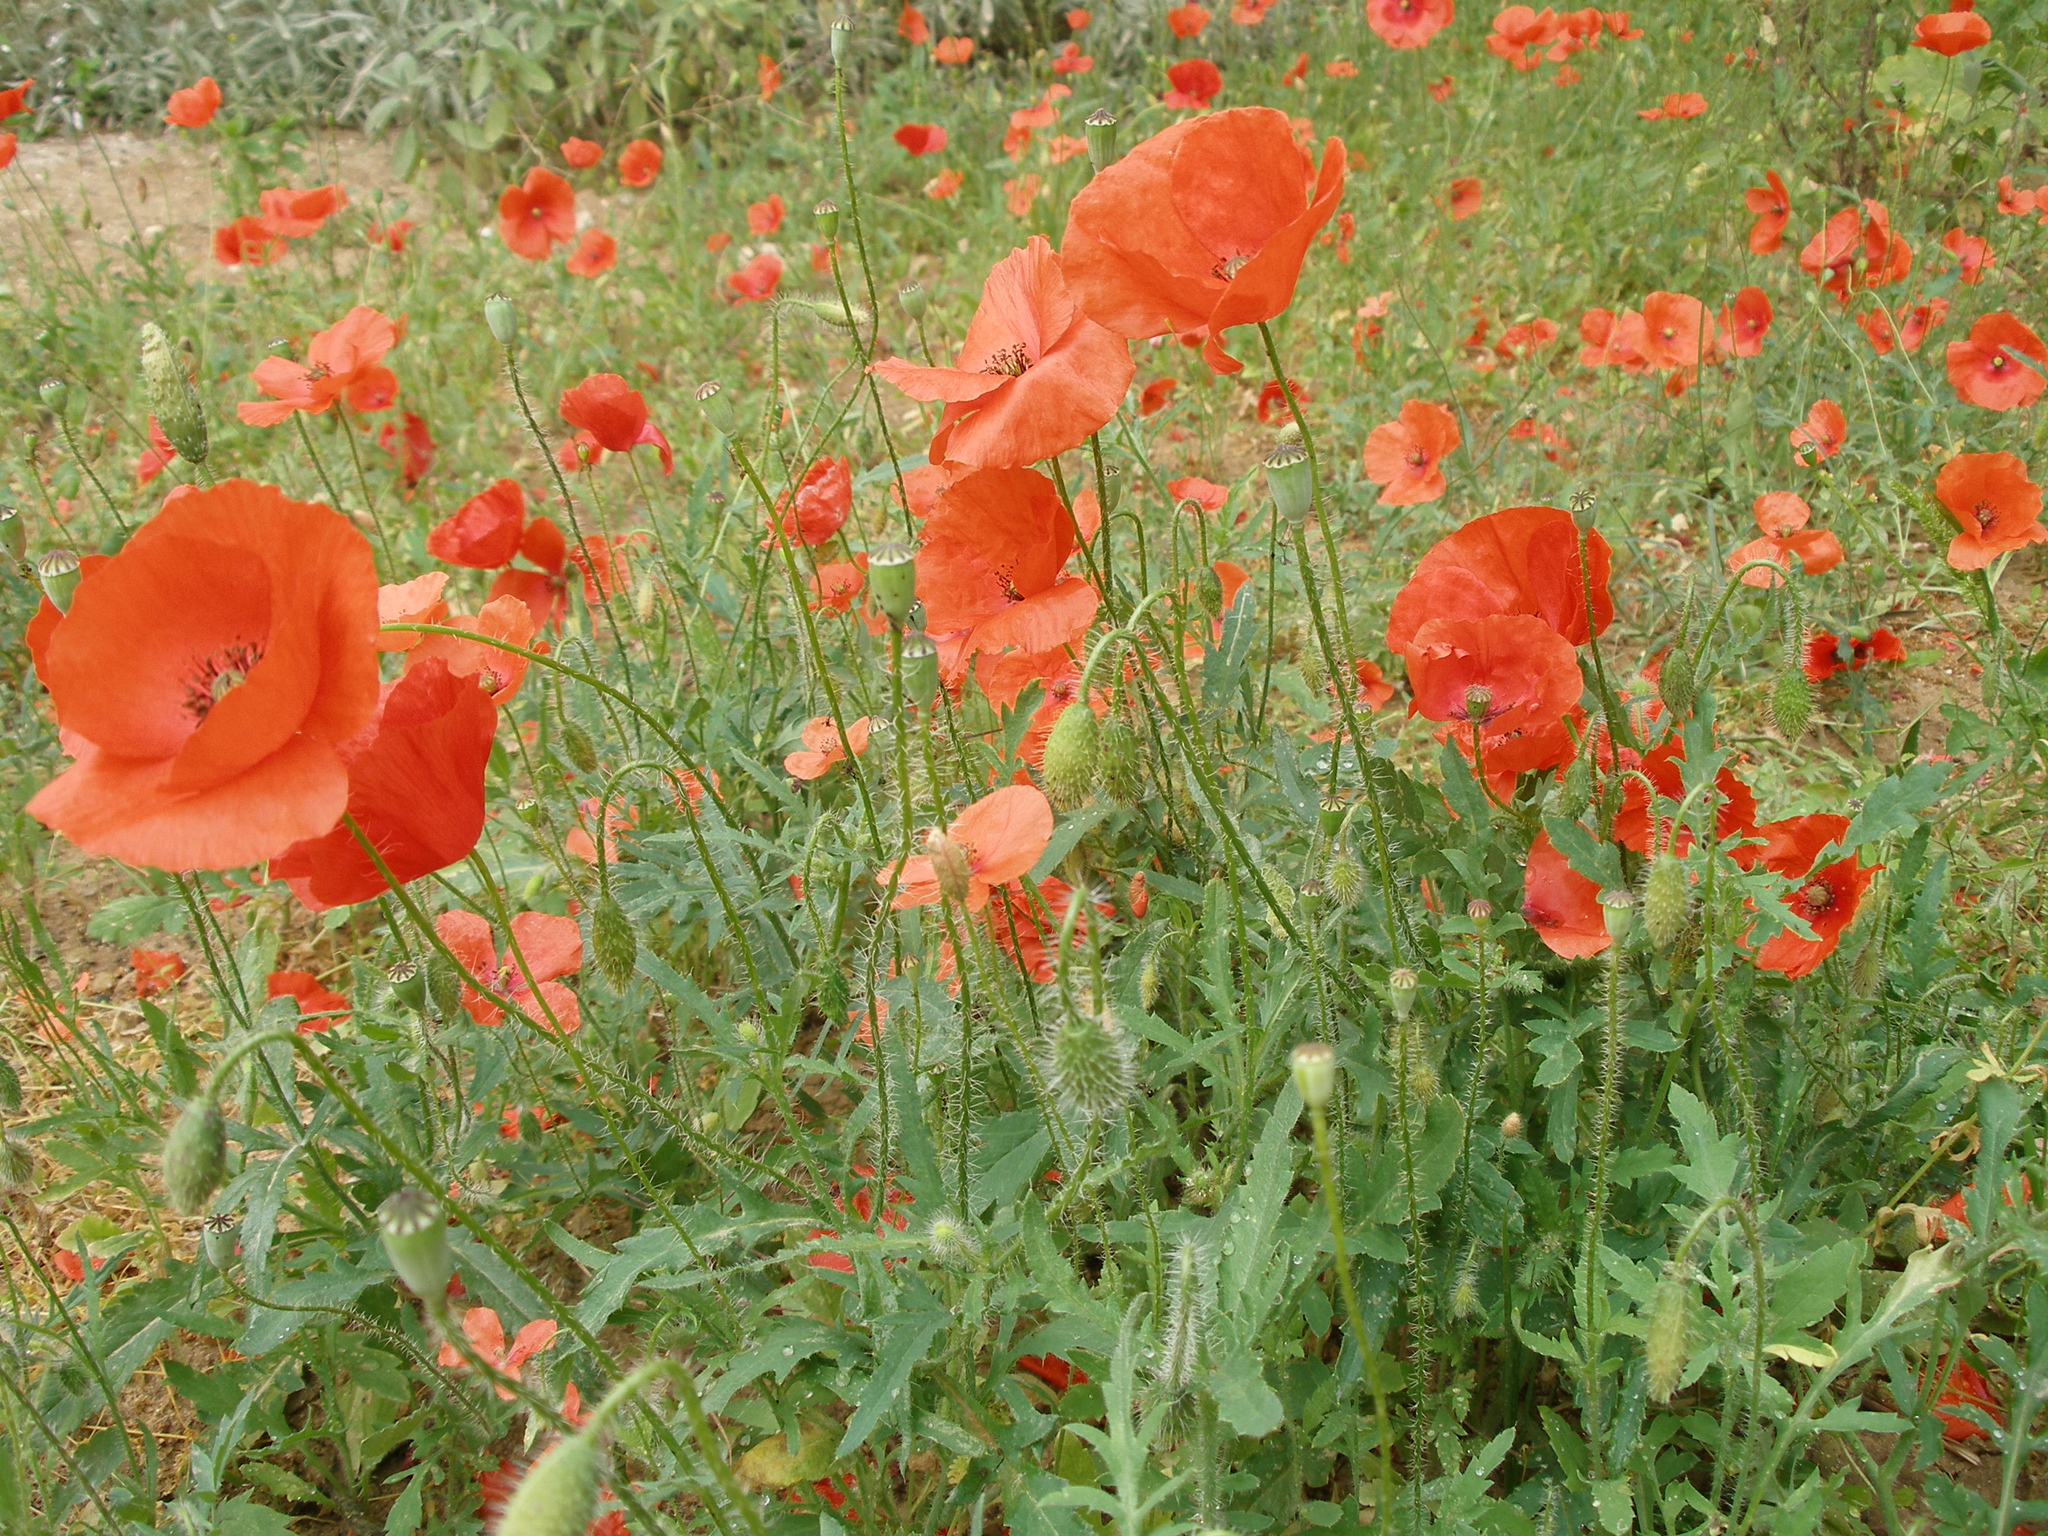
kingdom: Plantae
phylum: Tracheophyta
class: Magnoliopsida
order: Ranunculales
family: Papaveraceae
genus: Papaver
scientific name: Papaver rhoeas
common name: Corn poppy
